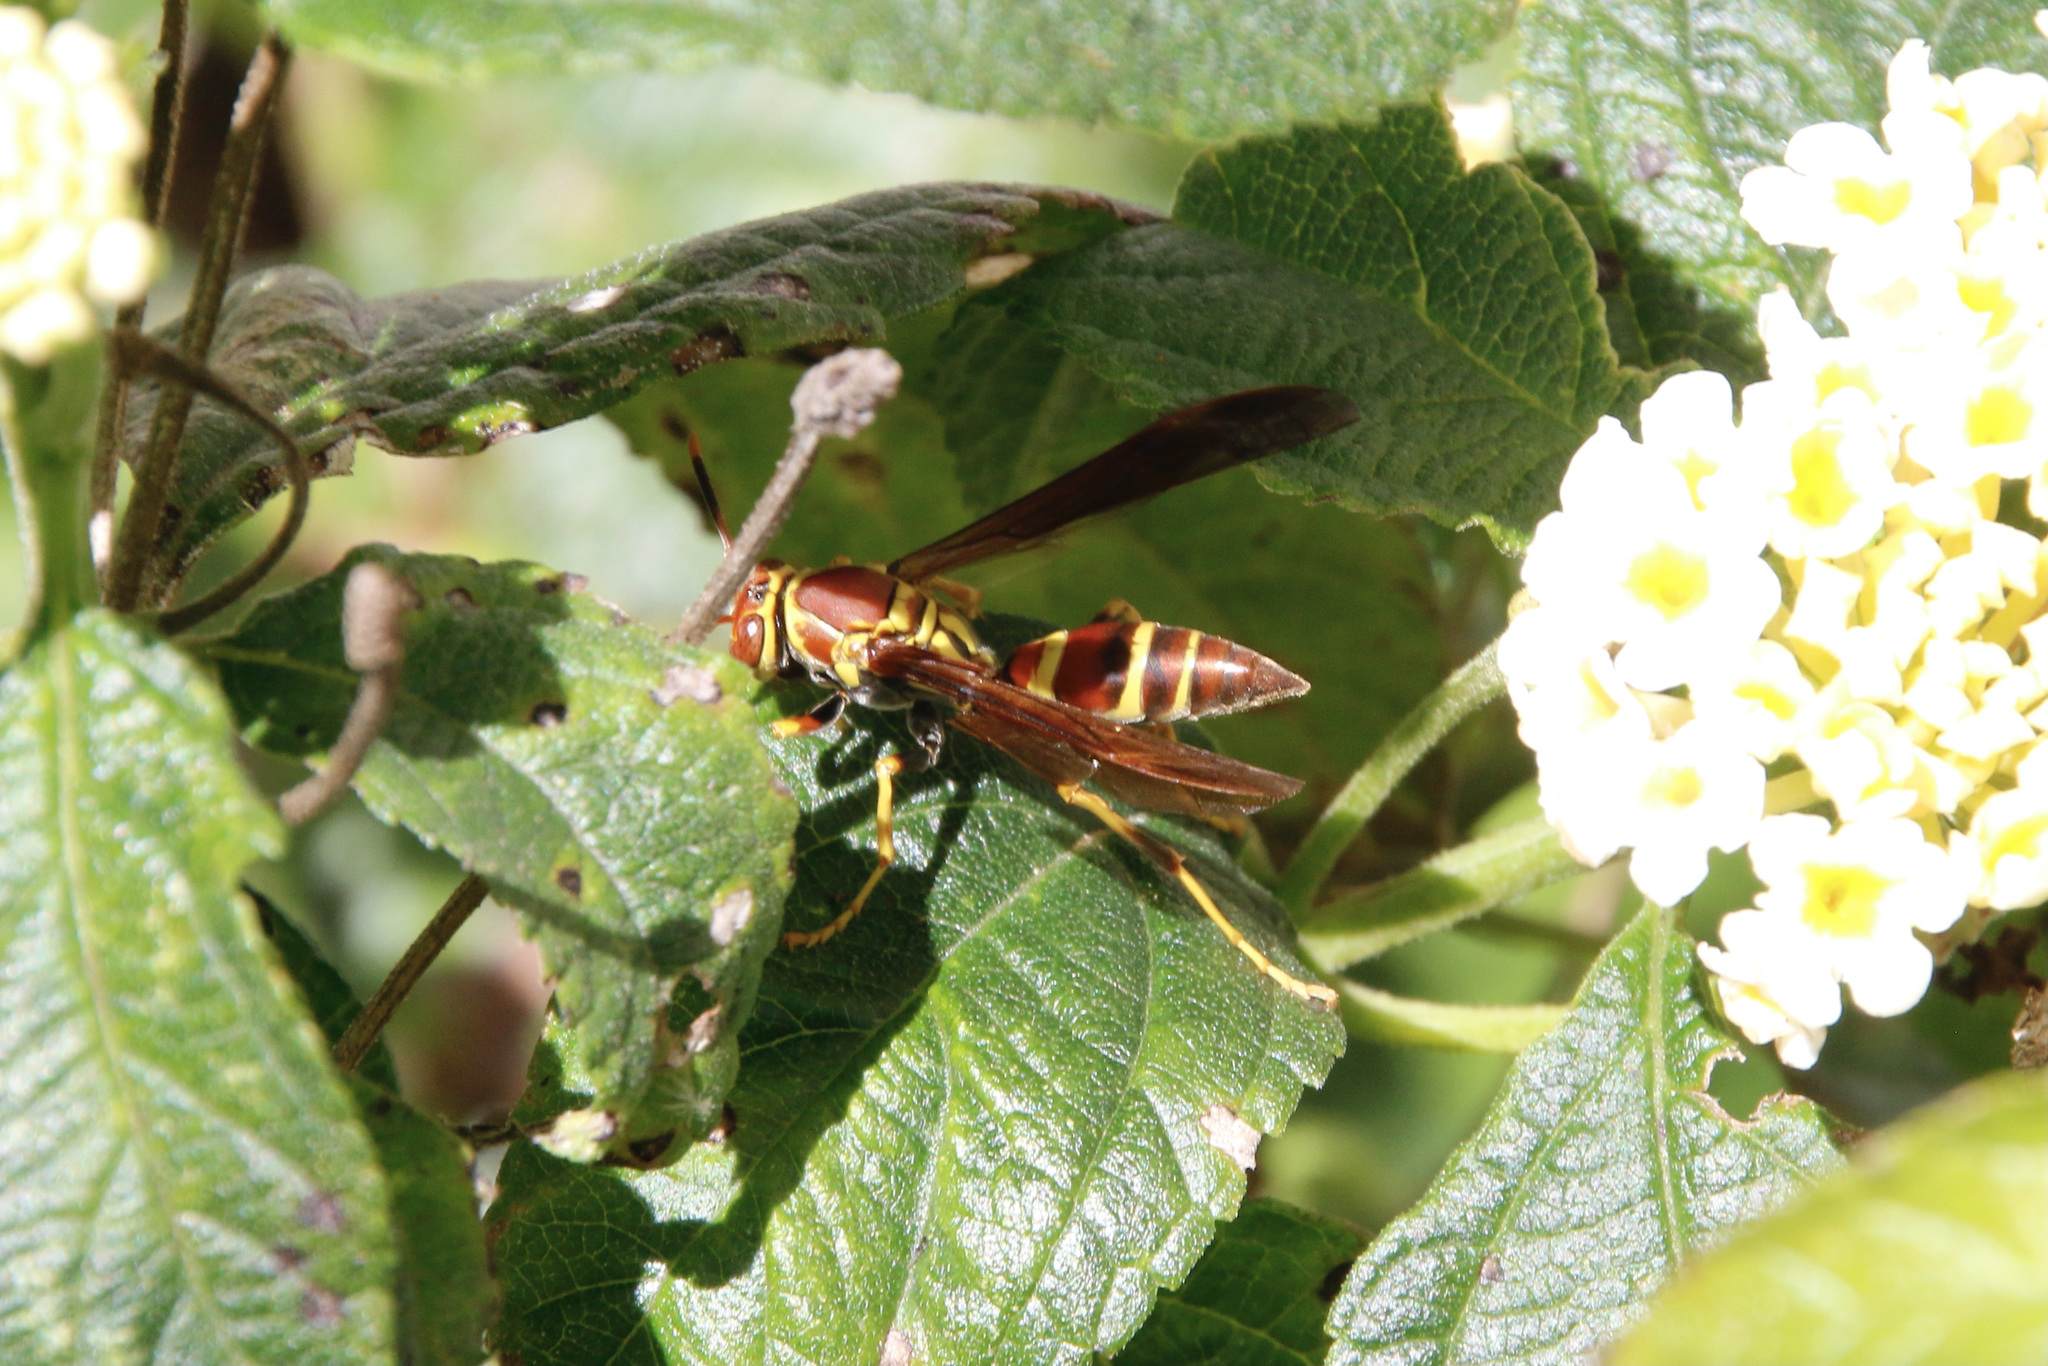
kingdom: Animalia
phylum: Arthropoda
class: Insecta
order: Hymenoptera
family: Eumenidae
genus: Polistes
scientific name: Polistes instabilis
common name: Unstable paper wasp
